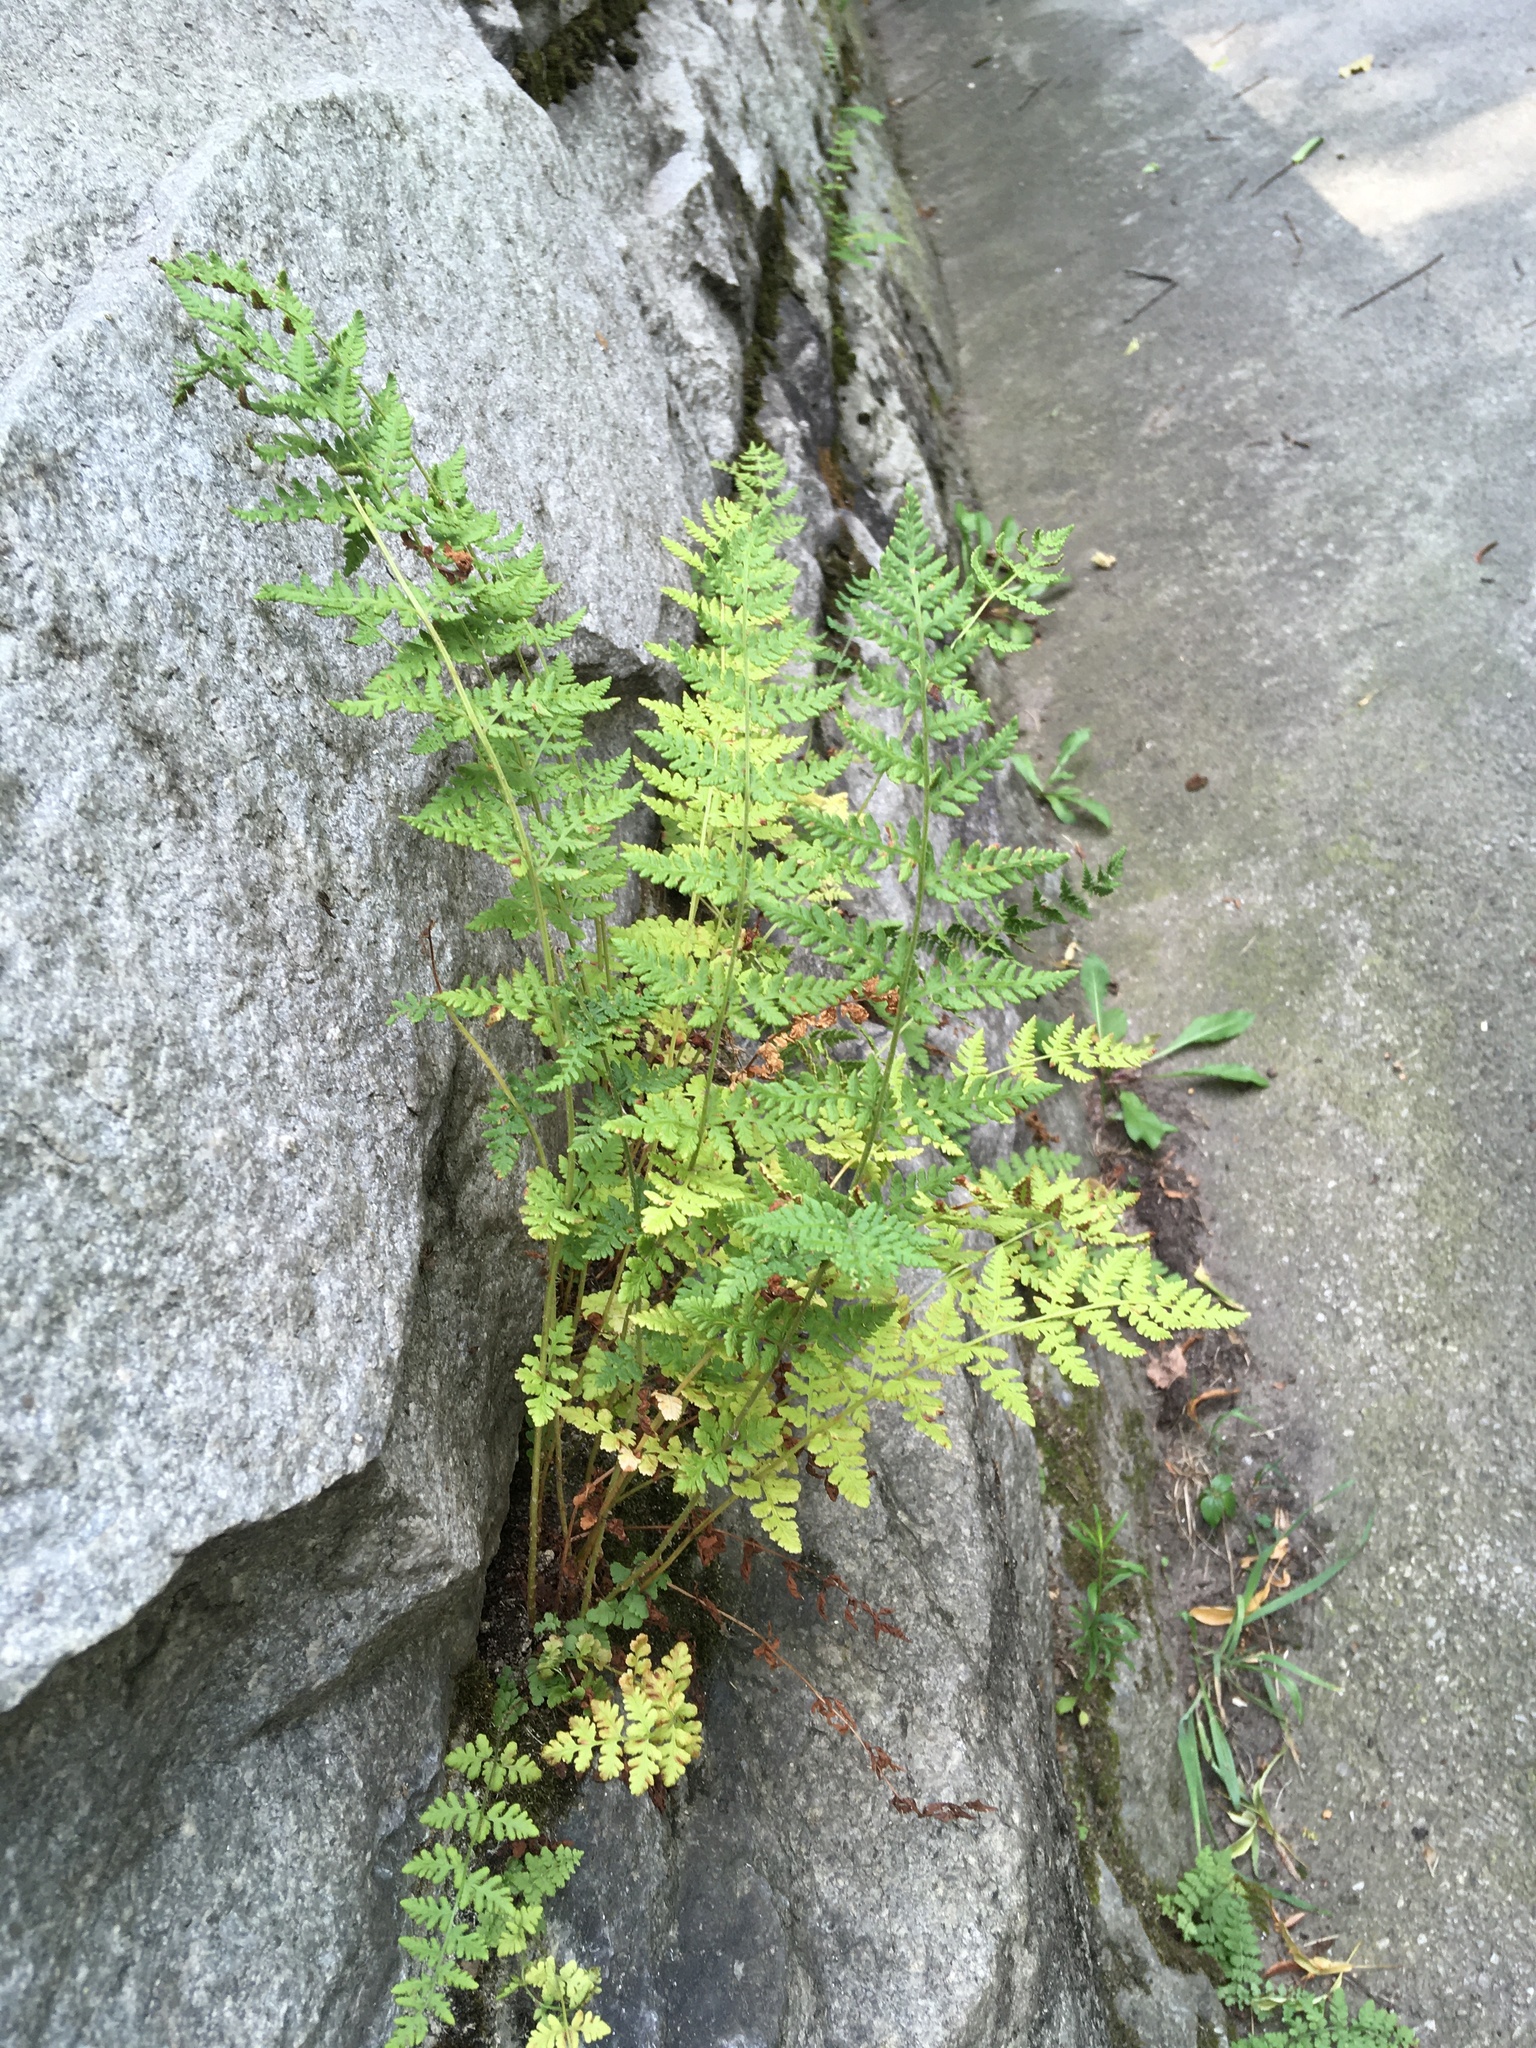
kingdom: Plantae
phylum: Tracheophyta
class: Polypodiopsida
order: Polypodiales
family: Woodsiaceae
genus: Physematium
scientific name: Physematium obtusum
